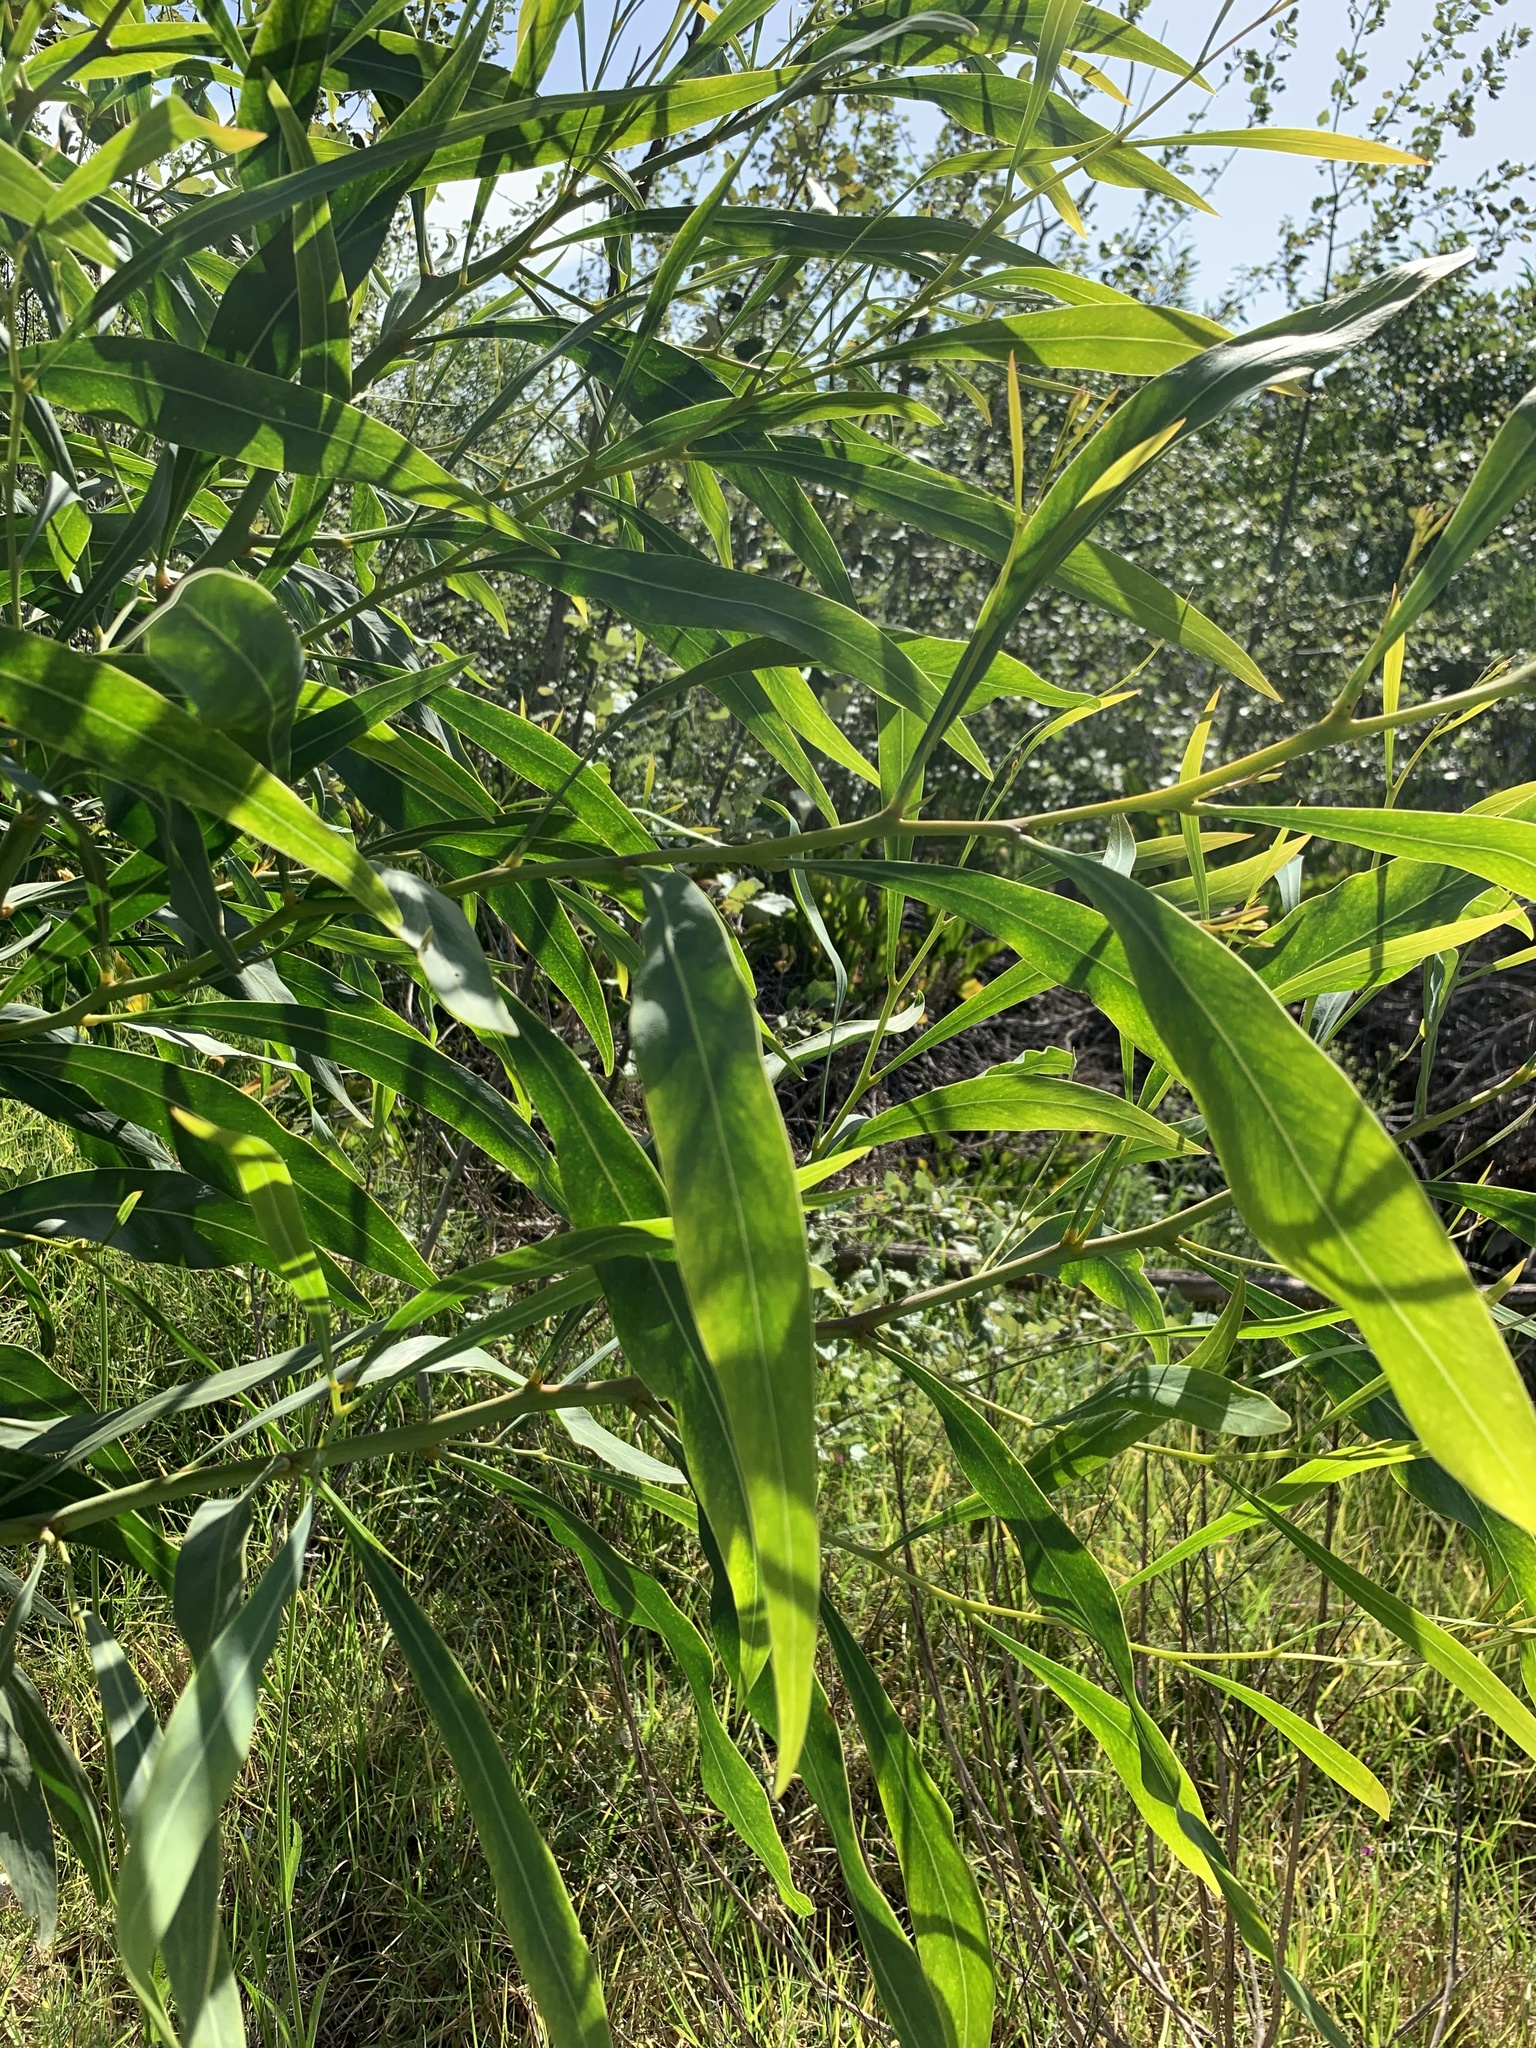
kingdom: Plantae
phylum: Tracheophyta
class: Magnoliopsida
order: Fabales
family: Fabaceae
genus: Acacia
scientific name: Acacia saligna
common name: Orange wattle
